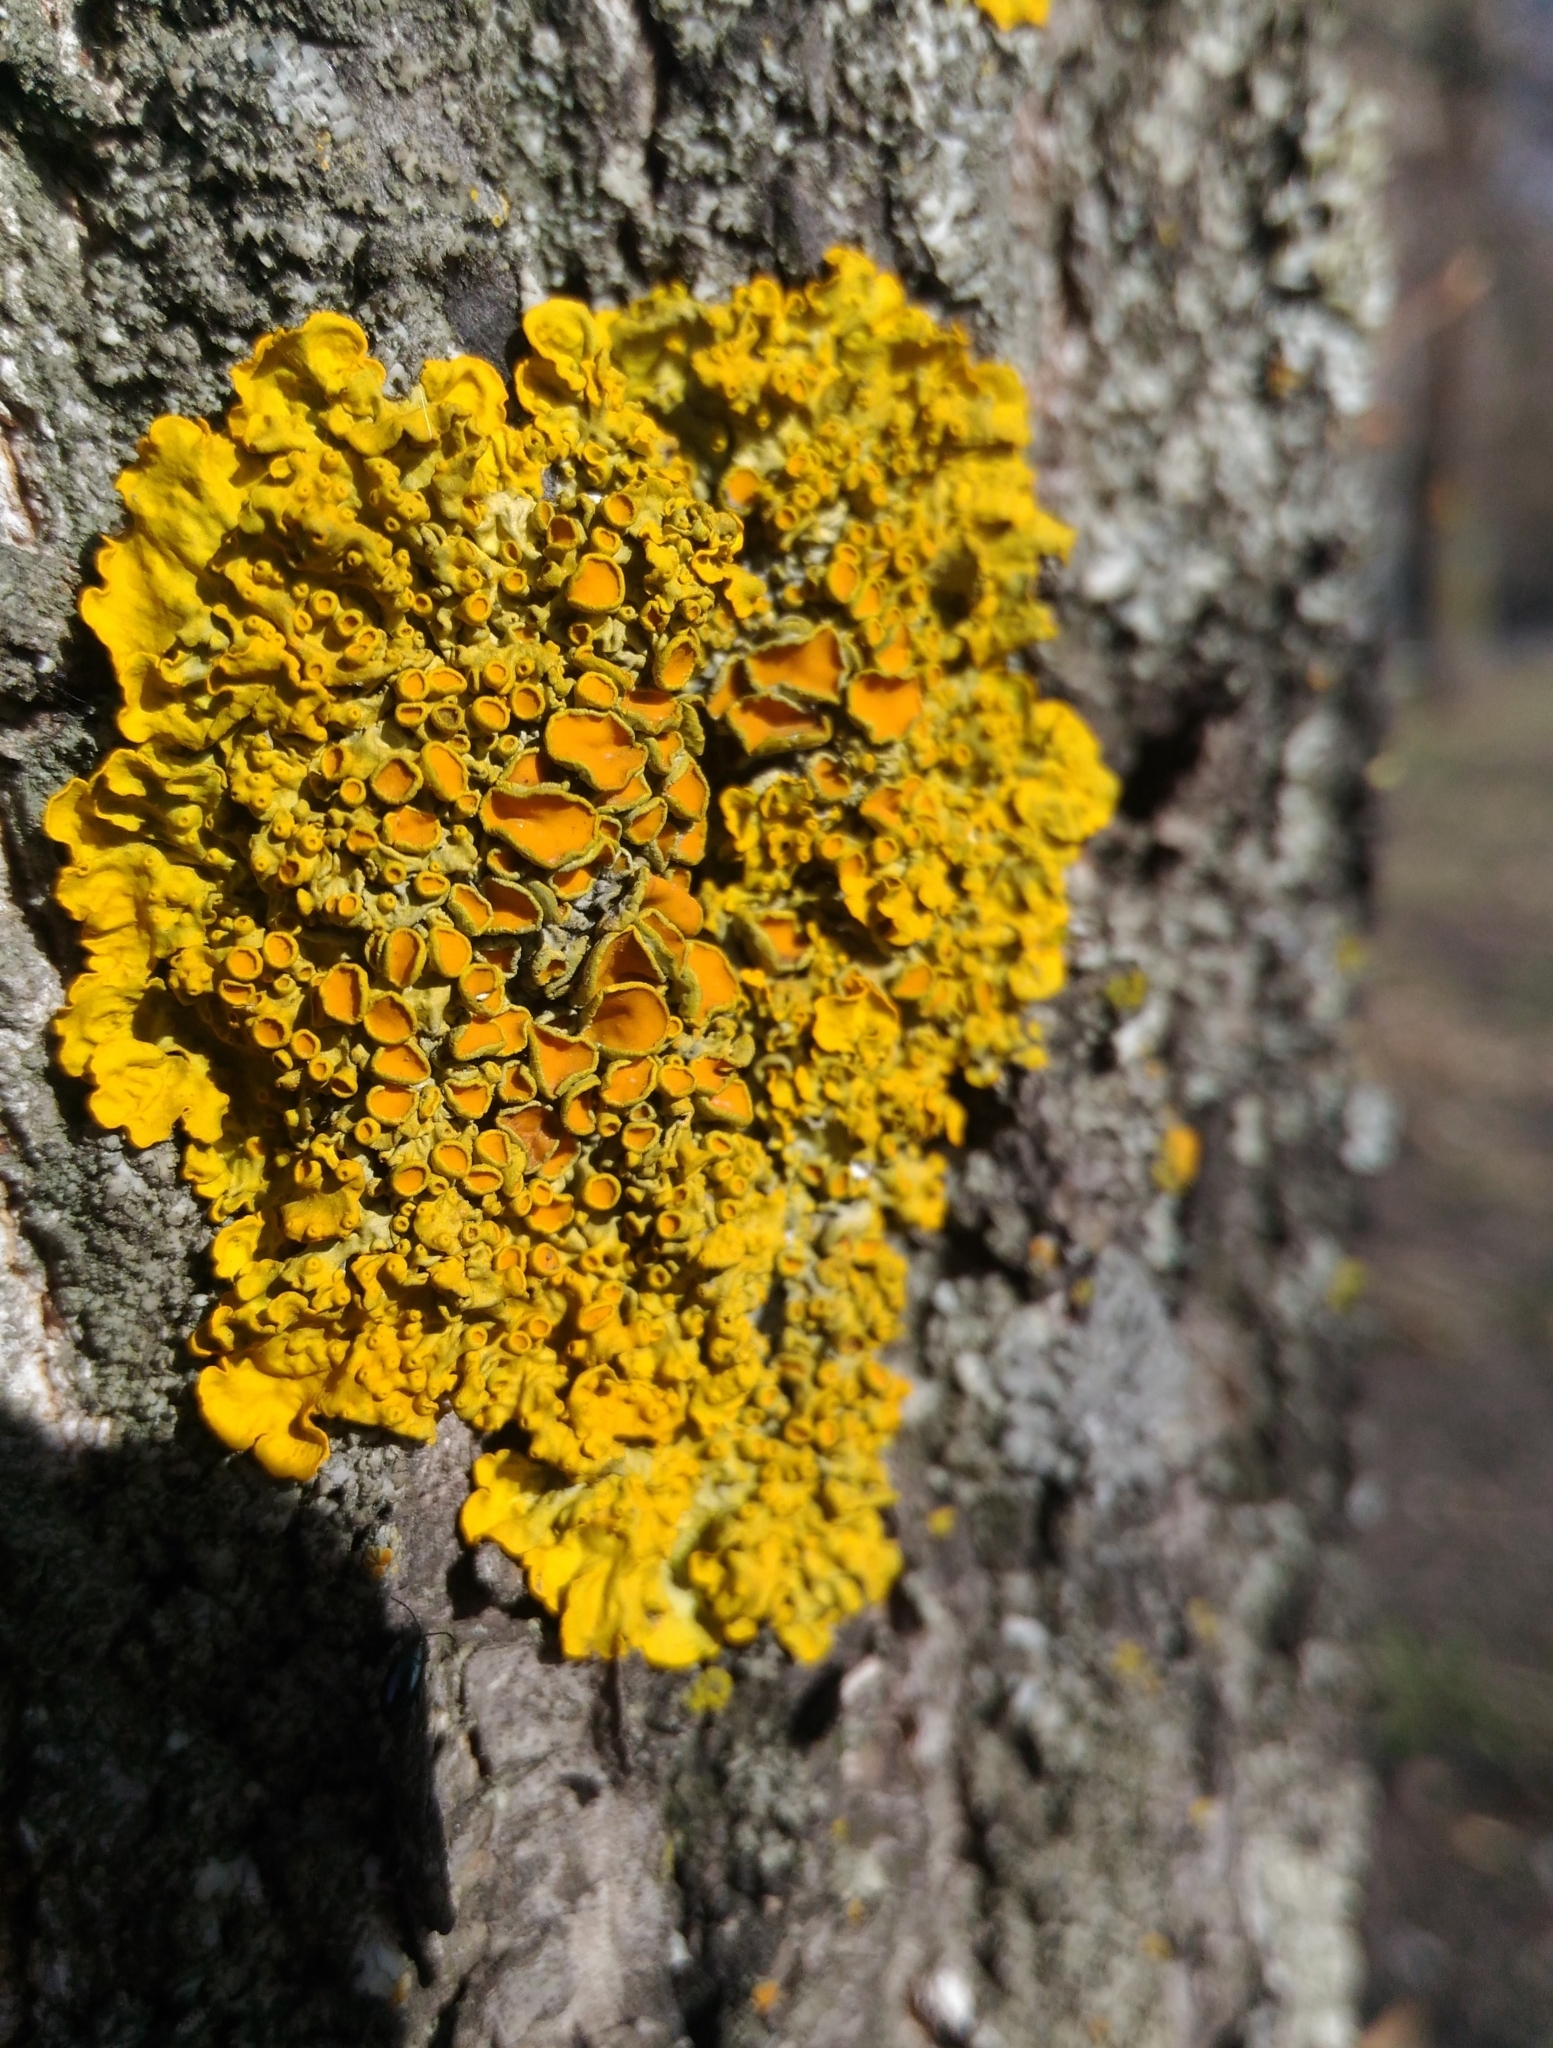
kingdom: Fungi
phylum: Ascomycota
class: Lecanoromycetes
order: Teloschistales
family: Teloschistaceae
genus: Xanthoria
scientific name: Xanthoria parietina
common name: Common orange lichen
